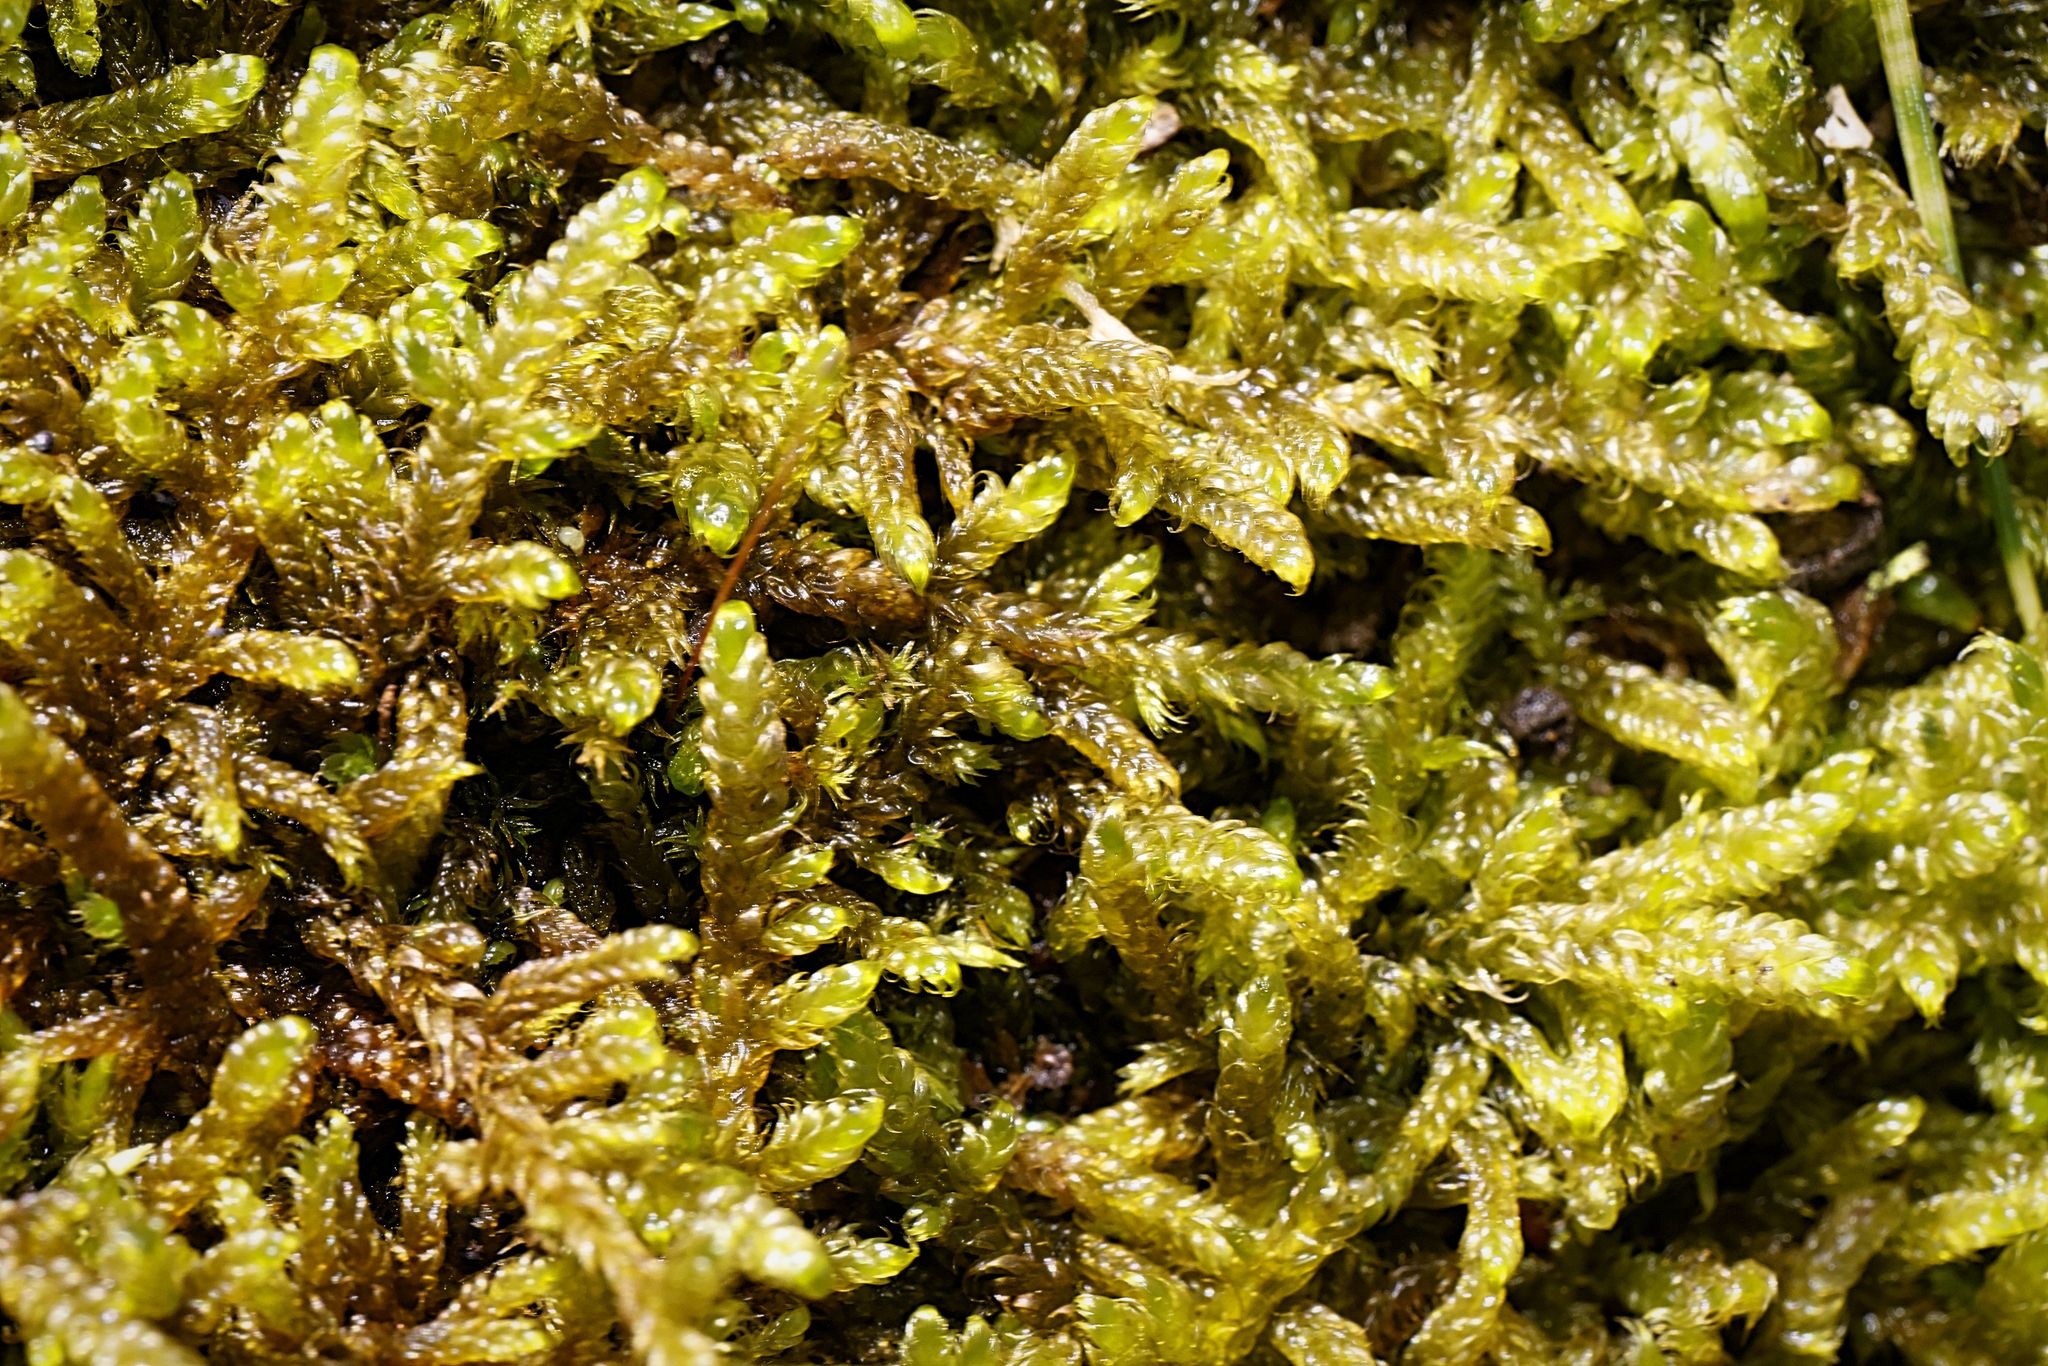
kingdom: Plantae
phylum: Bryophyta
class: Bryopsida
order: Hypnales
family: Hypnaceae
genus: Hypnum
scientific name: Hypnum cupressiforme
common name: Cypress-leaved plait-moss
